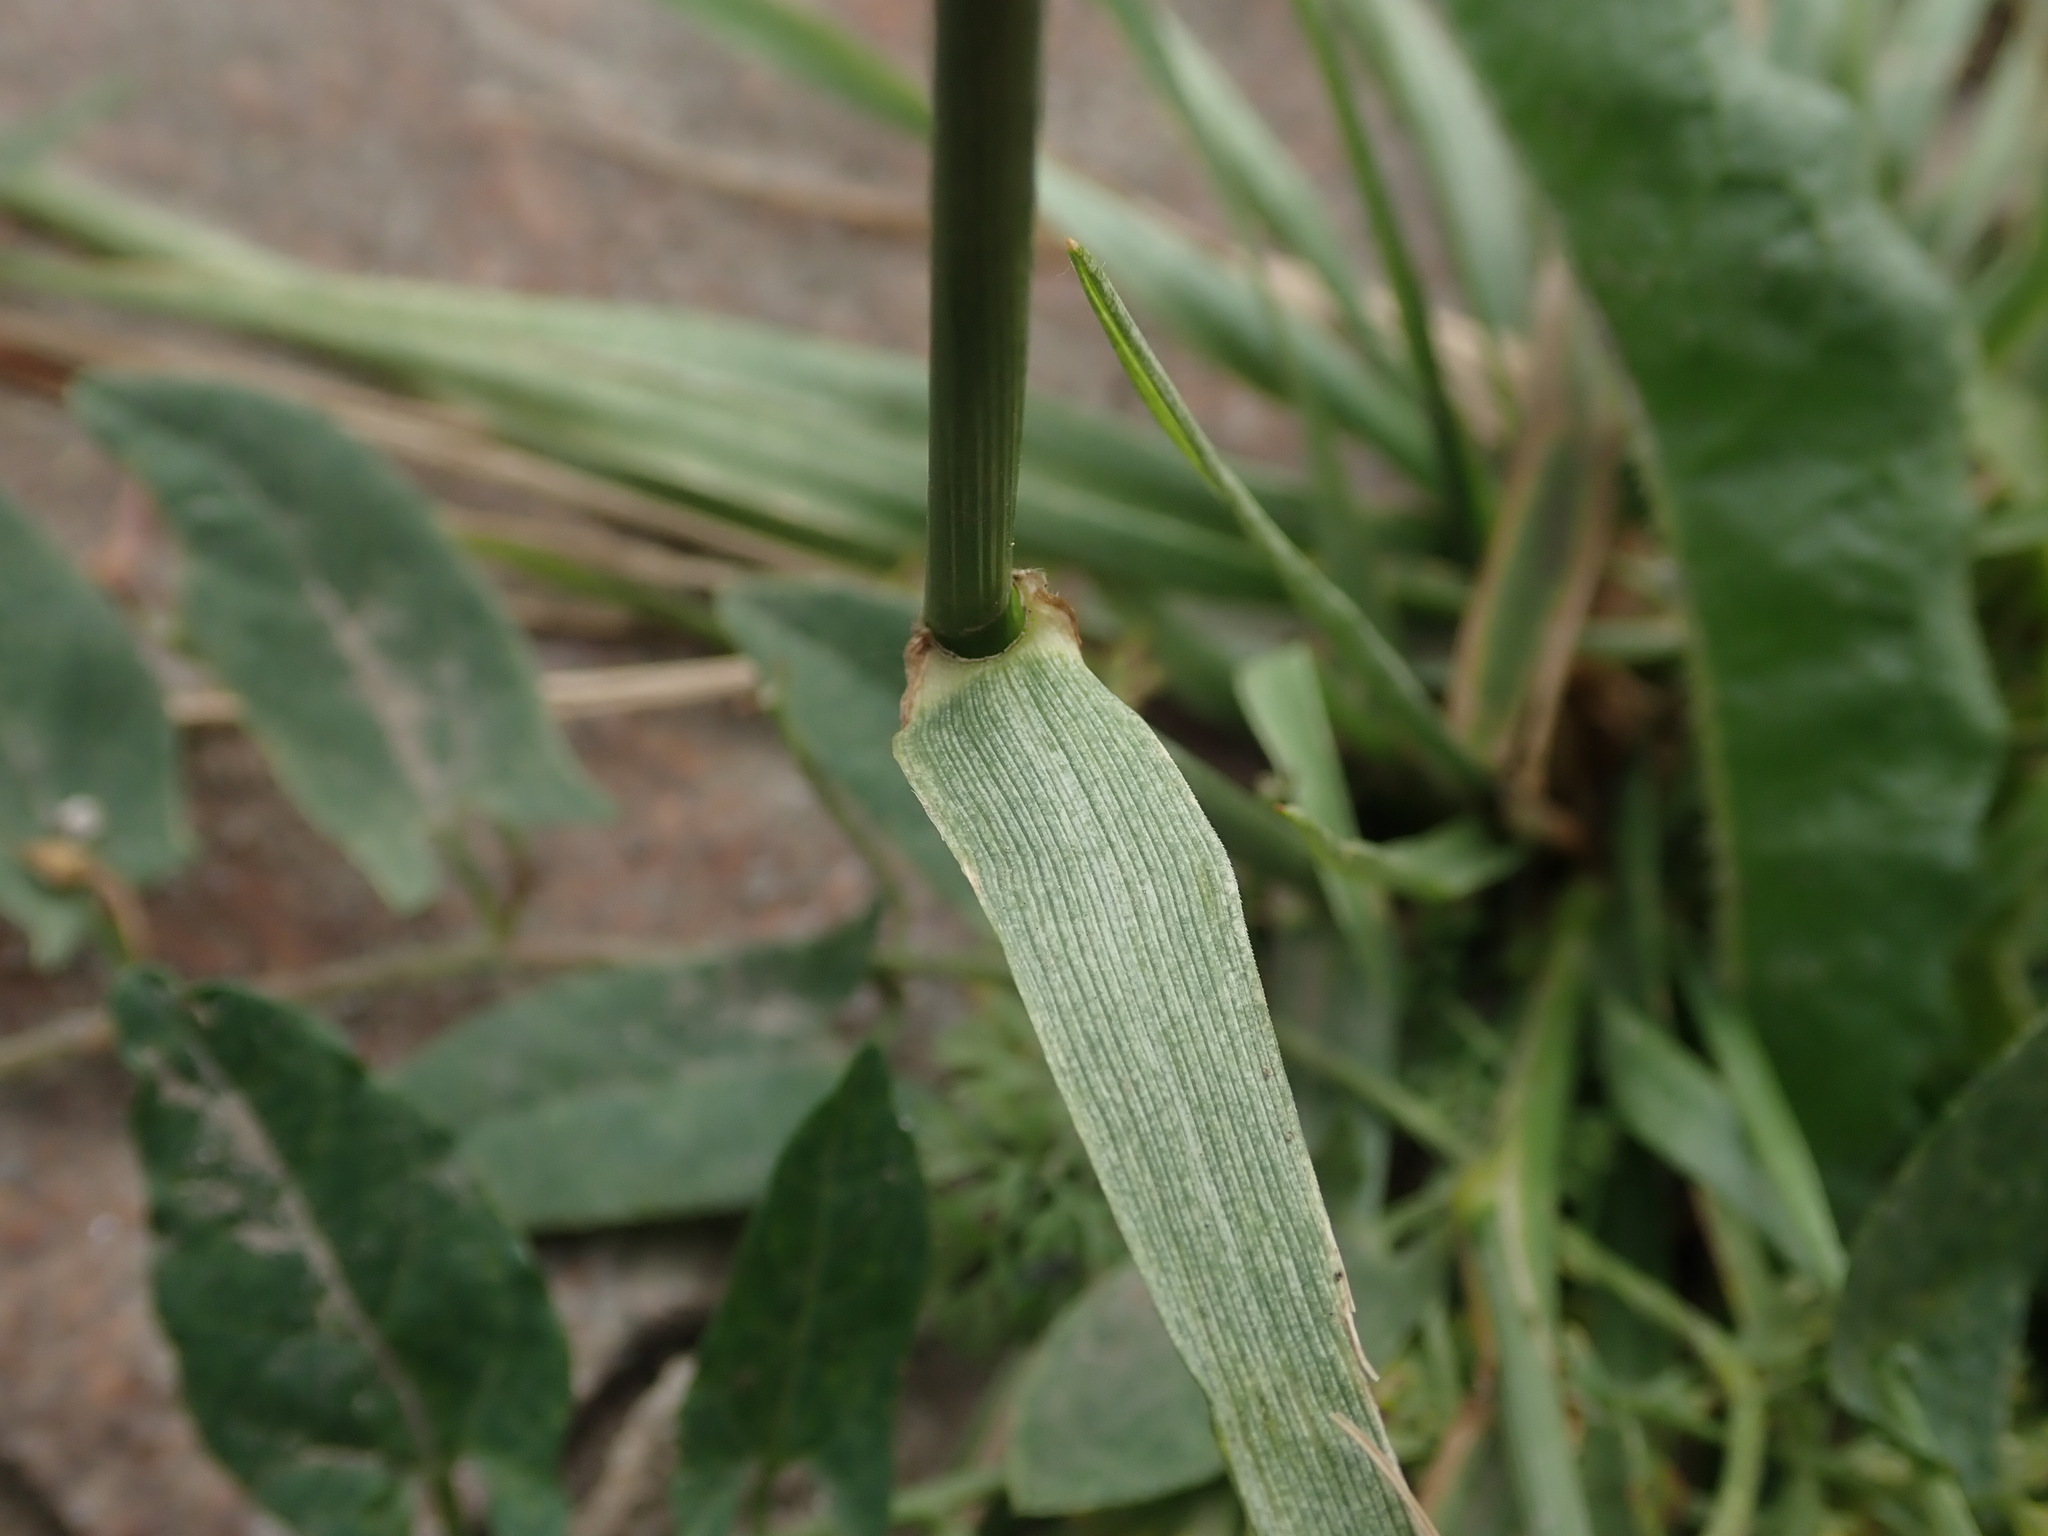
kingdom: Plantae
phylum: Tracheophyta
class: Liliopsida
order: Poales
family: Poaceae
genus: Lolium
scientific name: Lolium arundinaceum
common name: Reed fescue
